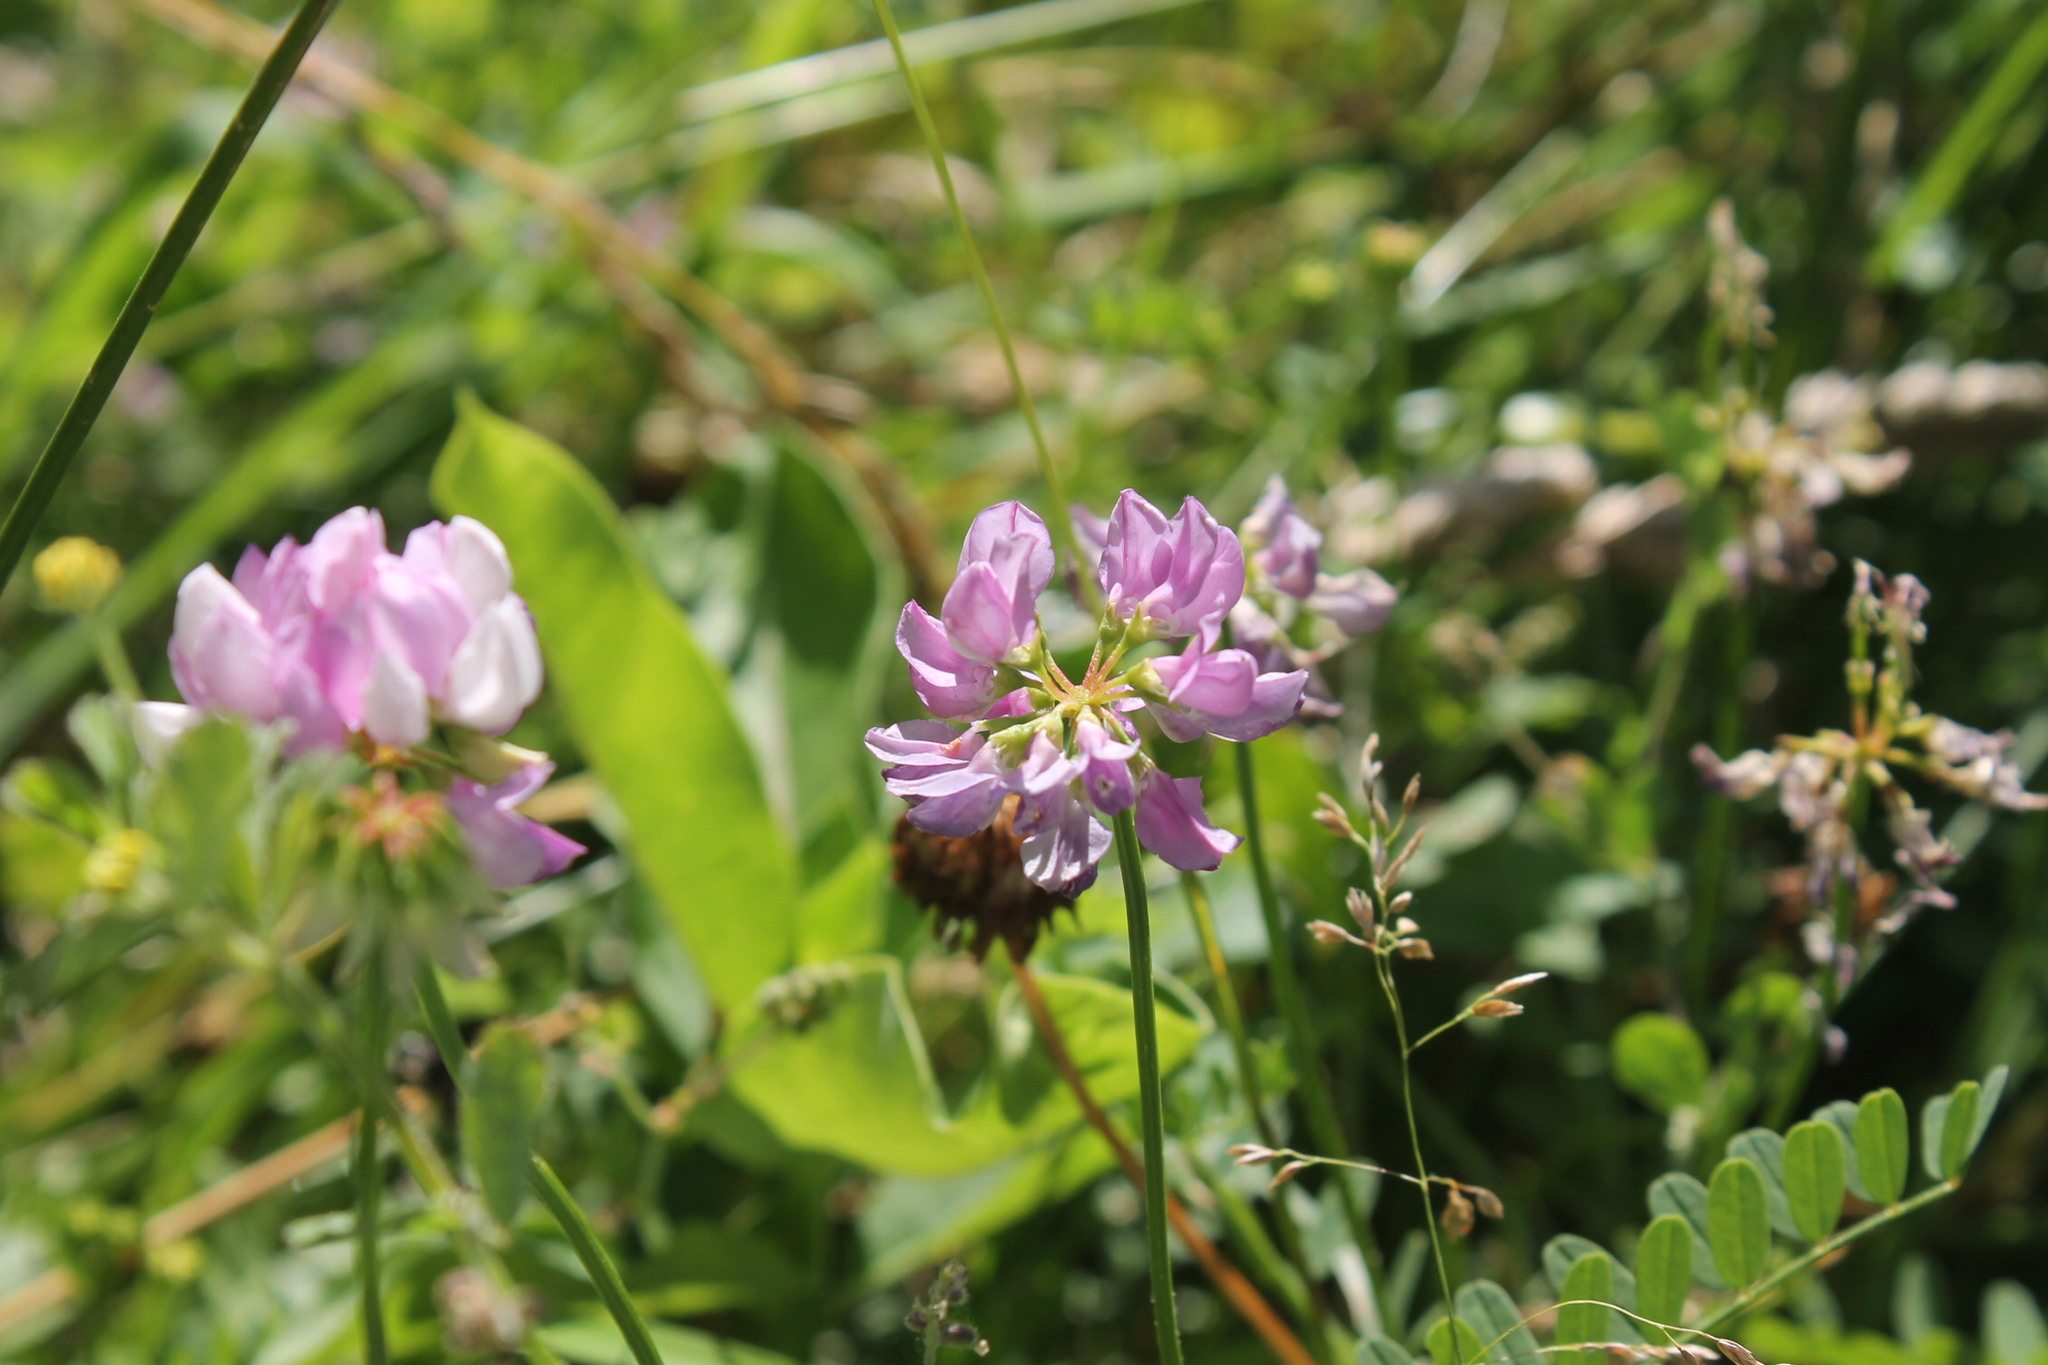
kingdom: Plantae
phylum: Tracheophyta
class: Magnoliopsida
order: Fabales
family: Fabaceae
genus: Coronilla
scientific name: Coronilla varia
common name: Crownvetch
